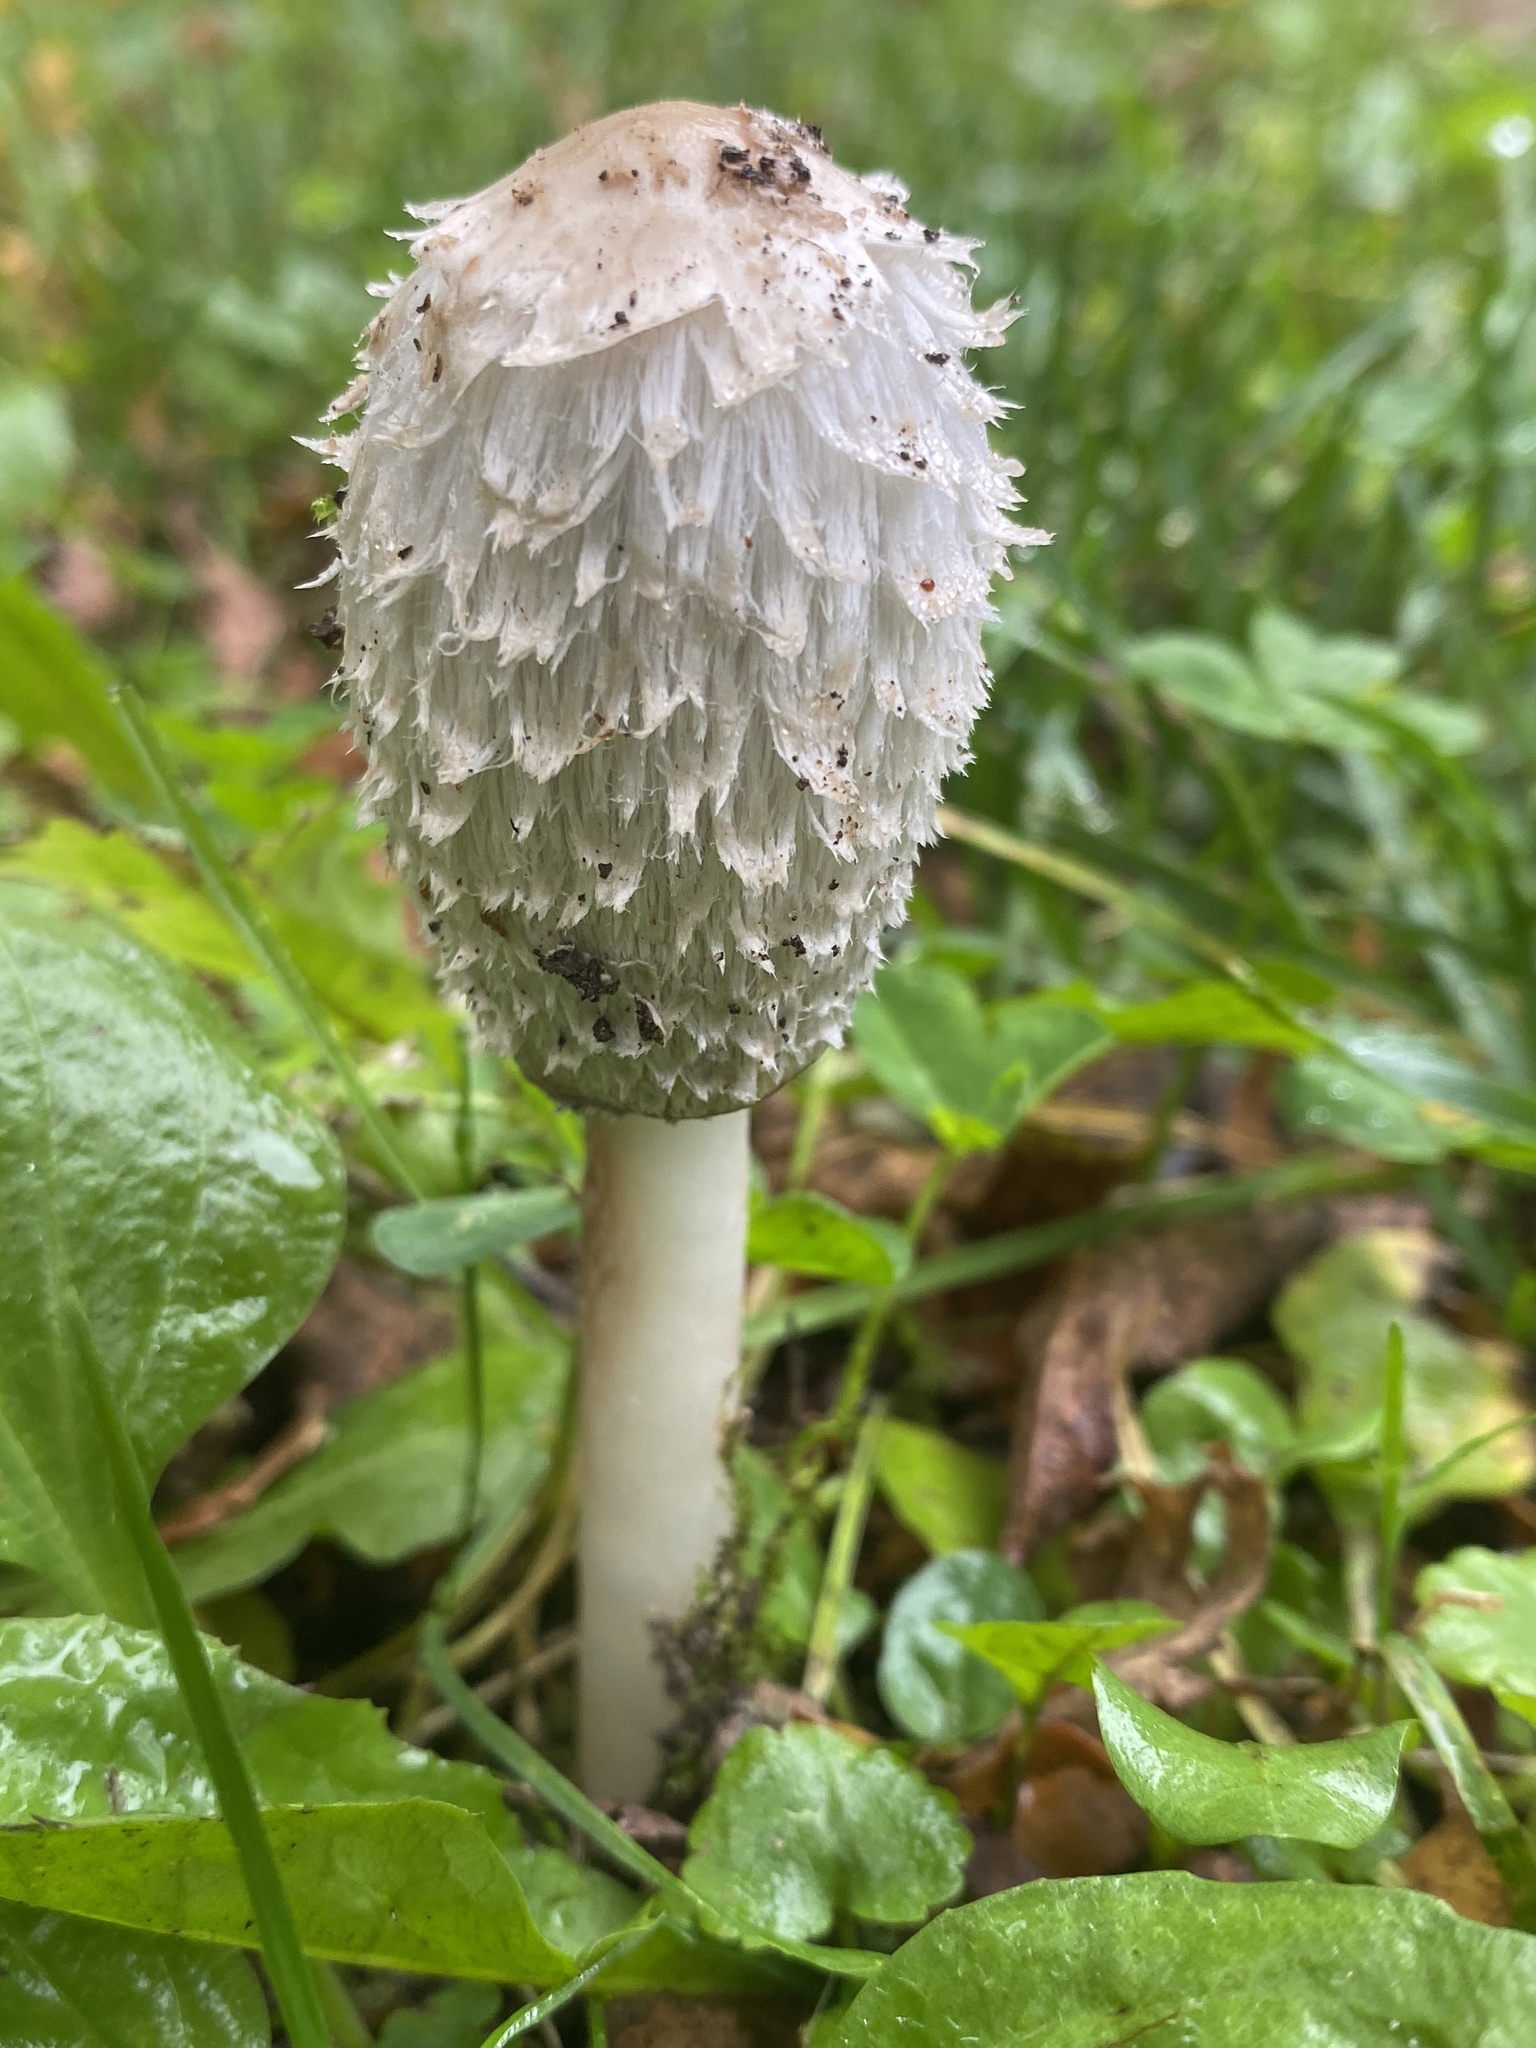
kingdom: Fungi
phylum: Basidiomycota
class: Agaricomycetes
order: Agaricales
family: Agaricaceae
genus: Coprinus
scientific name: Coprinus comatus
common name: Lawyer's wig
